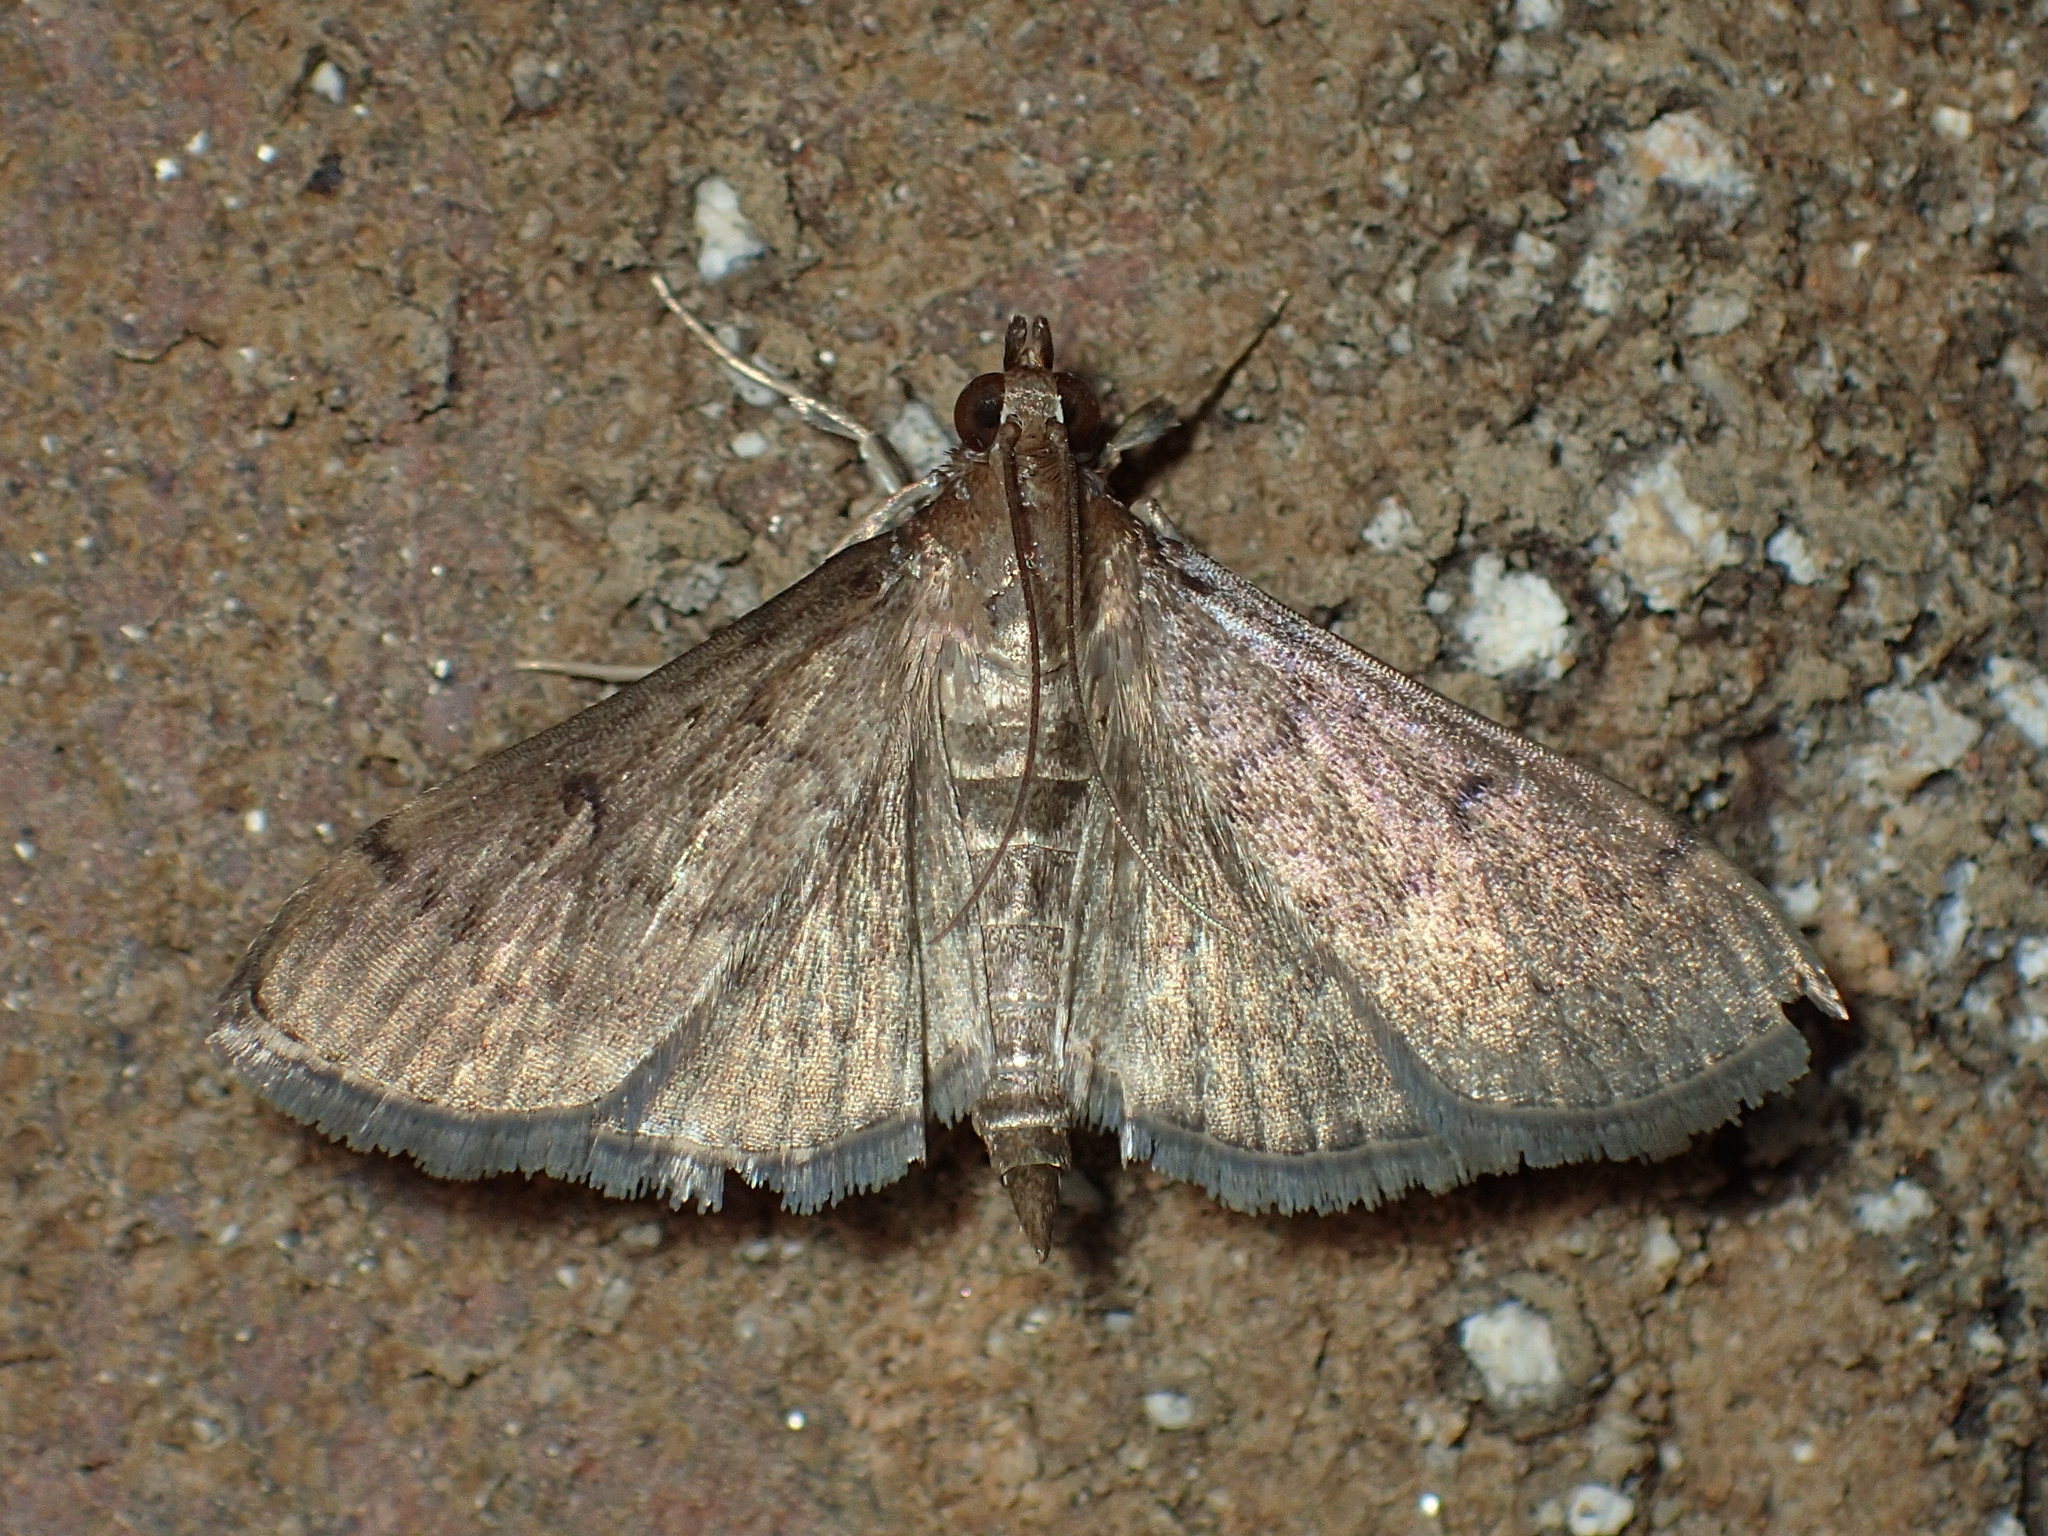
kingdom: Animalia
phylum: Arthropoda
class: Insecta
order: Lepidoptera
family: Crambidae
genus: Herpetogramma
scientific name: Herpetogramma phaeopteralis
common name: Dusky herpetogramma moth
